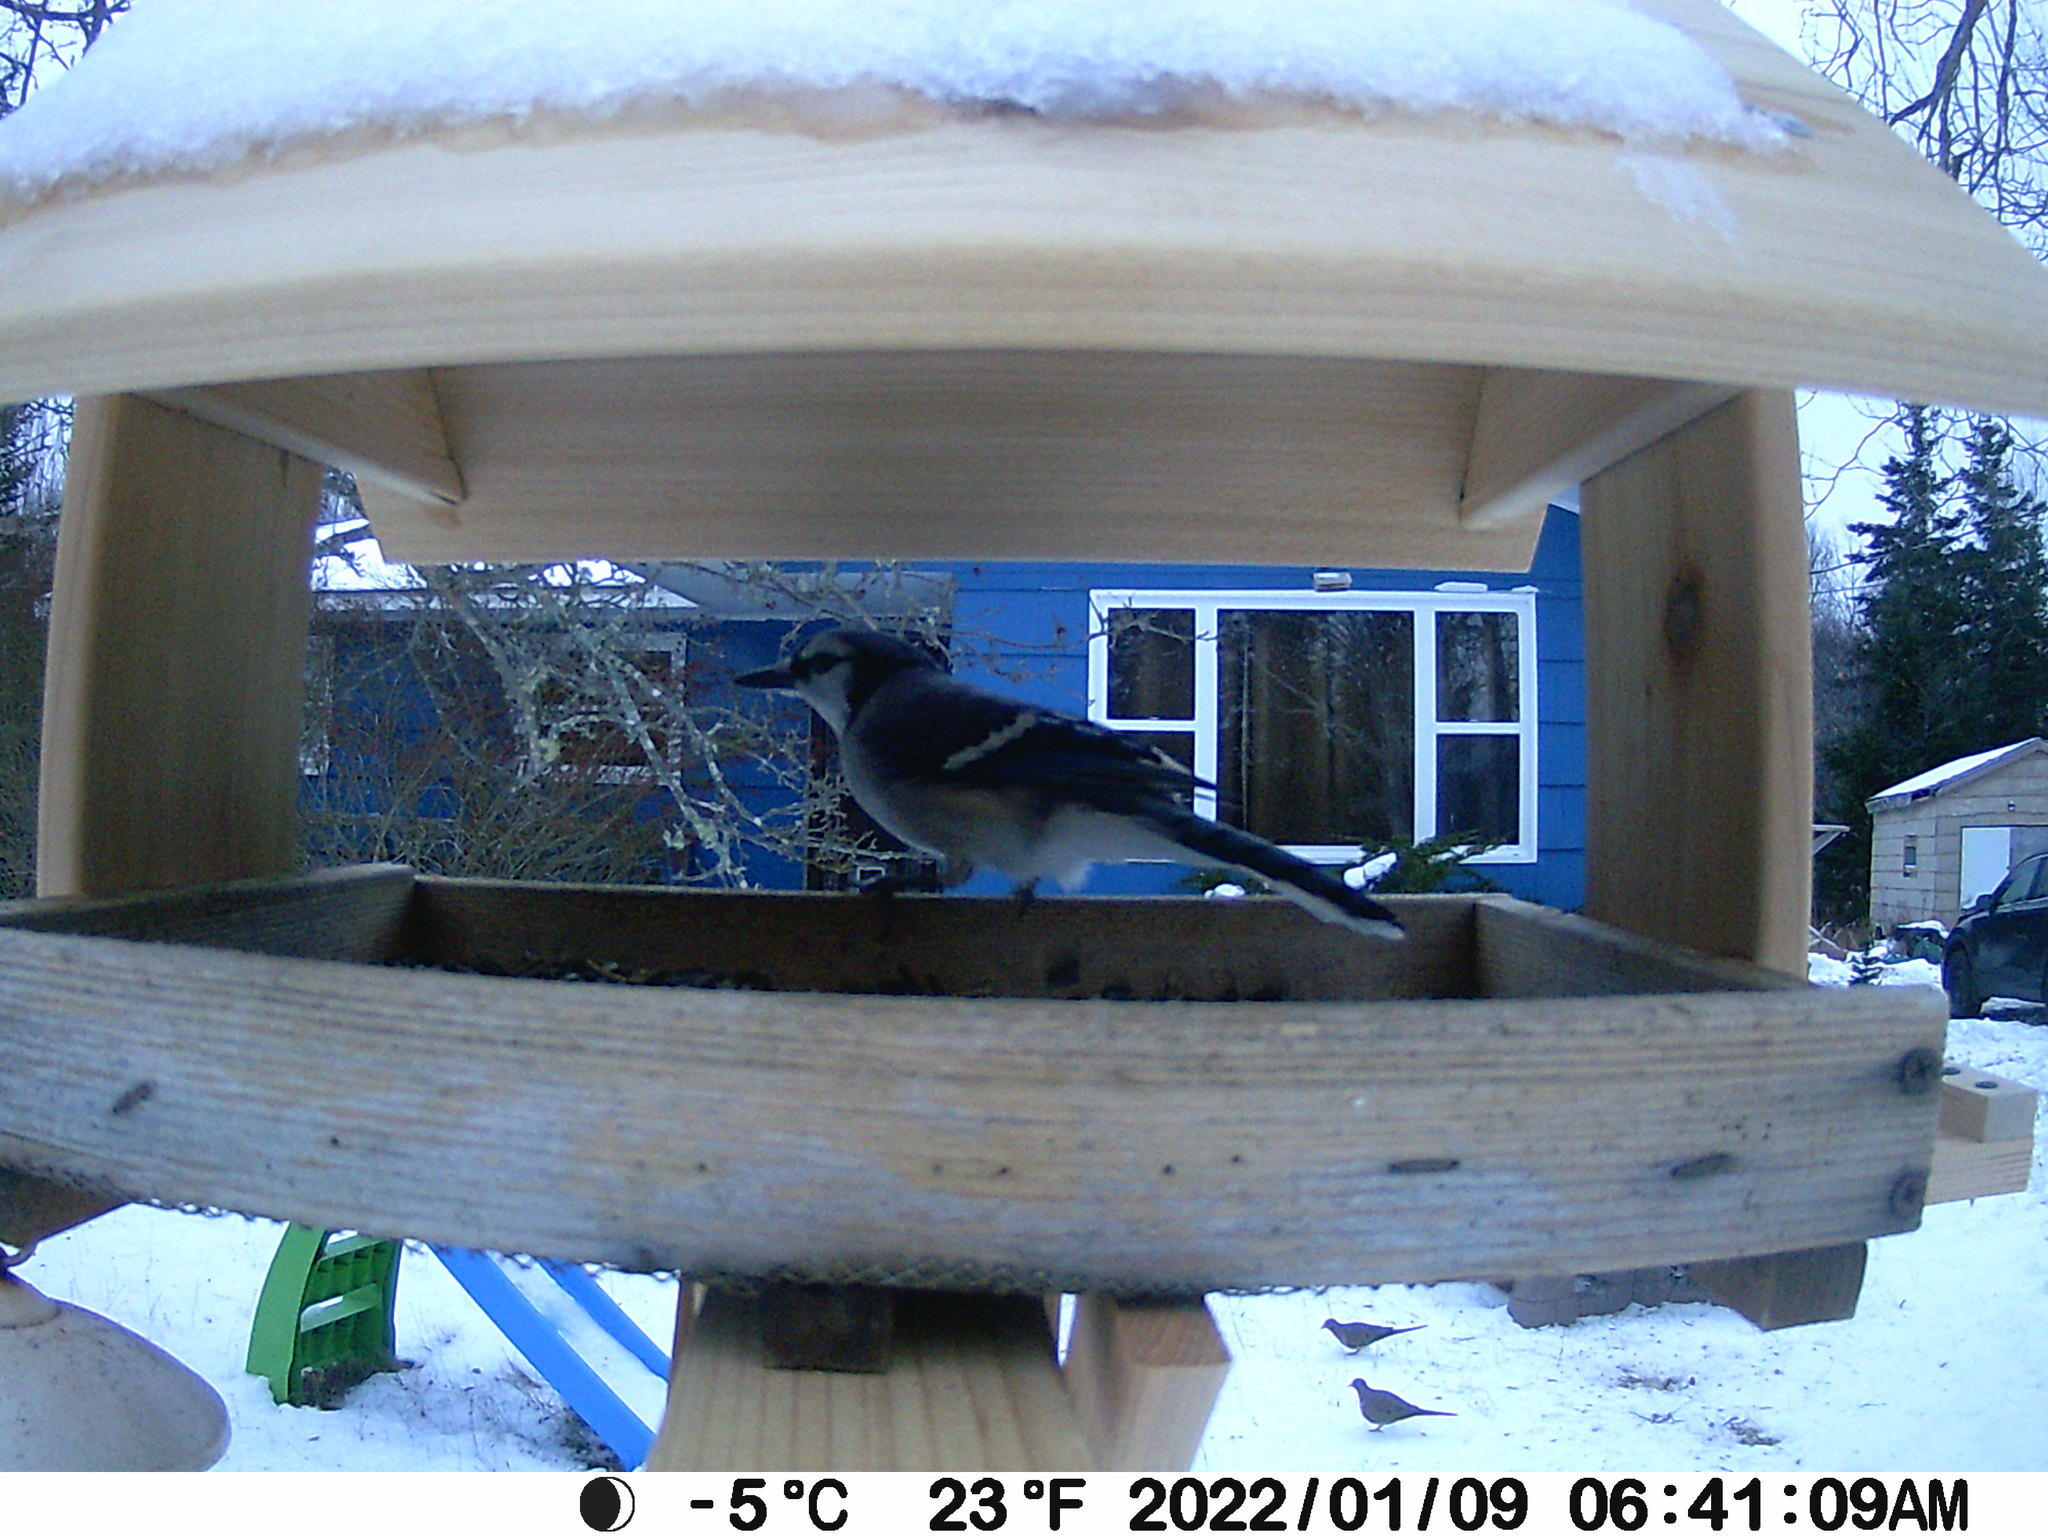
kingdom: Animalia
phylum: Chordata
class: Aves
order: Passeriformes
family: Corvidae
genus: Cyanocitta
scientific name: Cyanocitta cristata
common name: Blue jay
